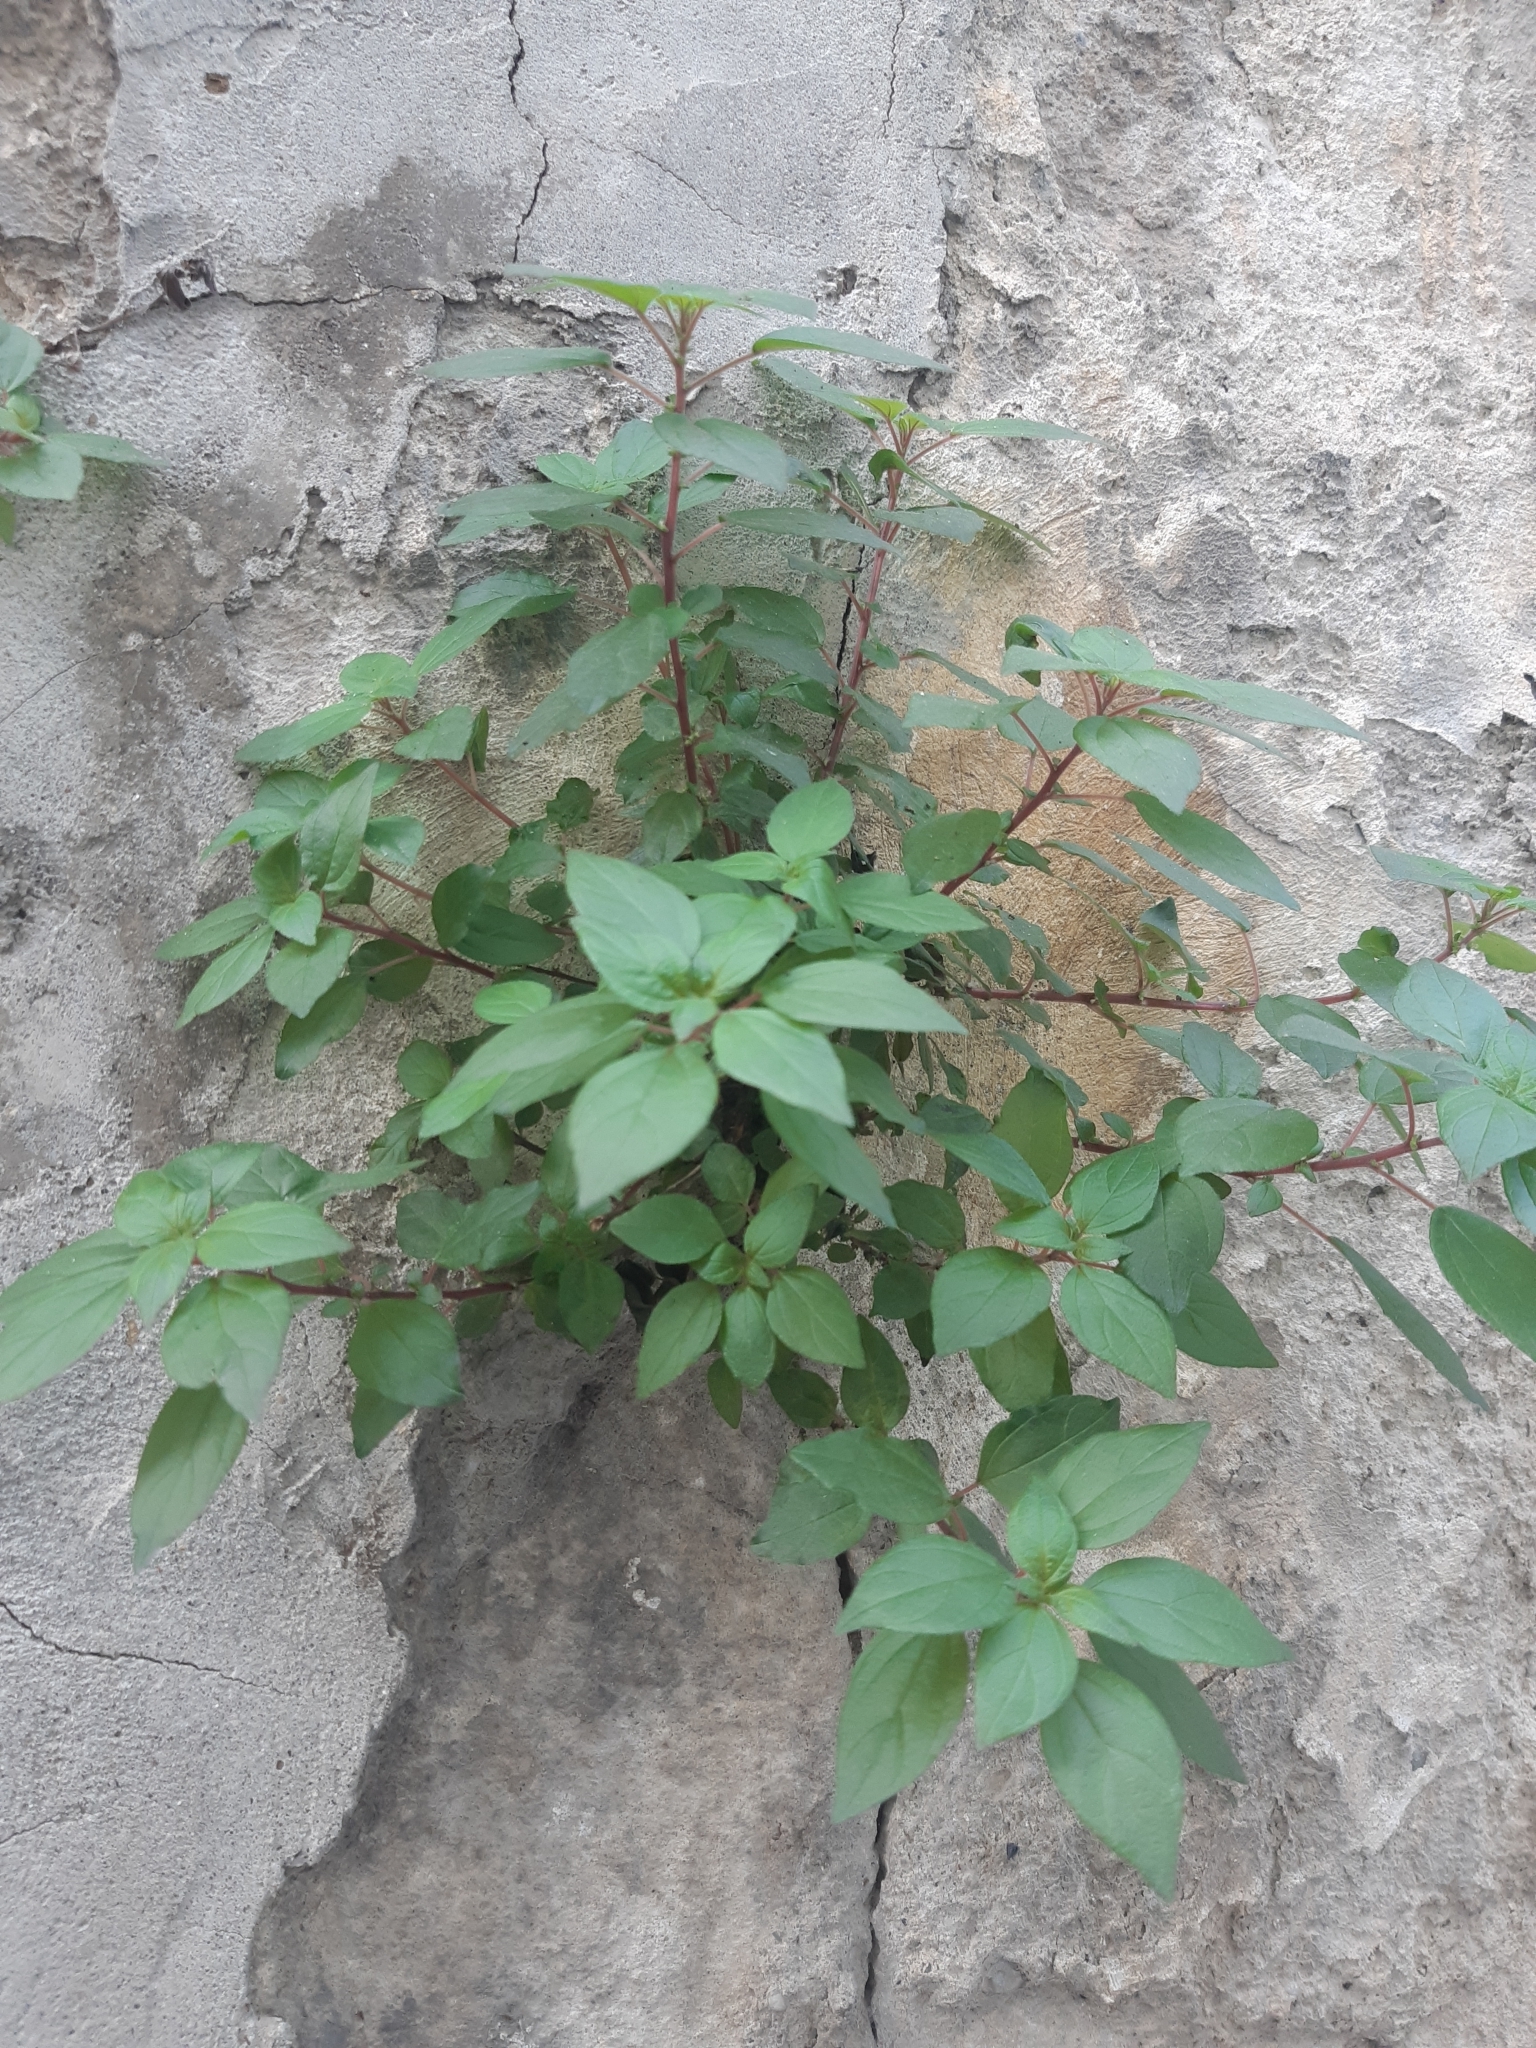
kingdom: Plantae
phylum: Tracheophyta
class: Magnoliopsida
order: Rosales
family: Urticaceae
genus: Parietaria
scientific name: Parietaria judaica
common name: Pellitory-of-the-wall
